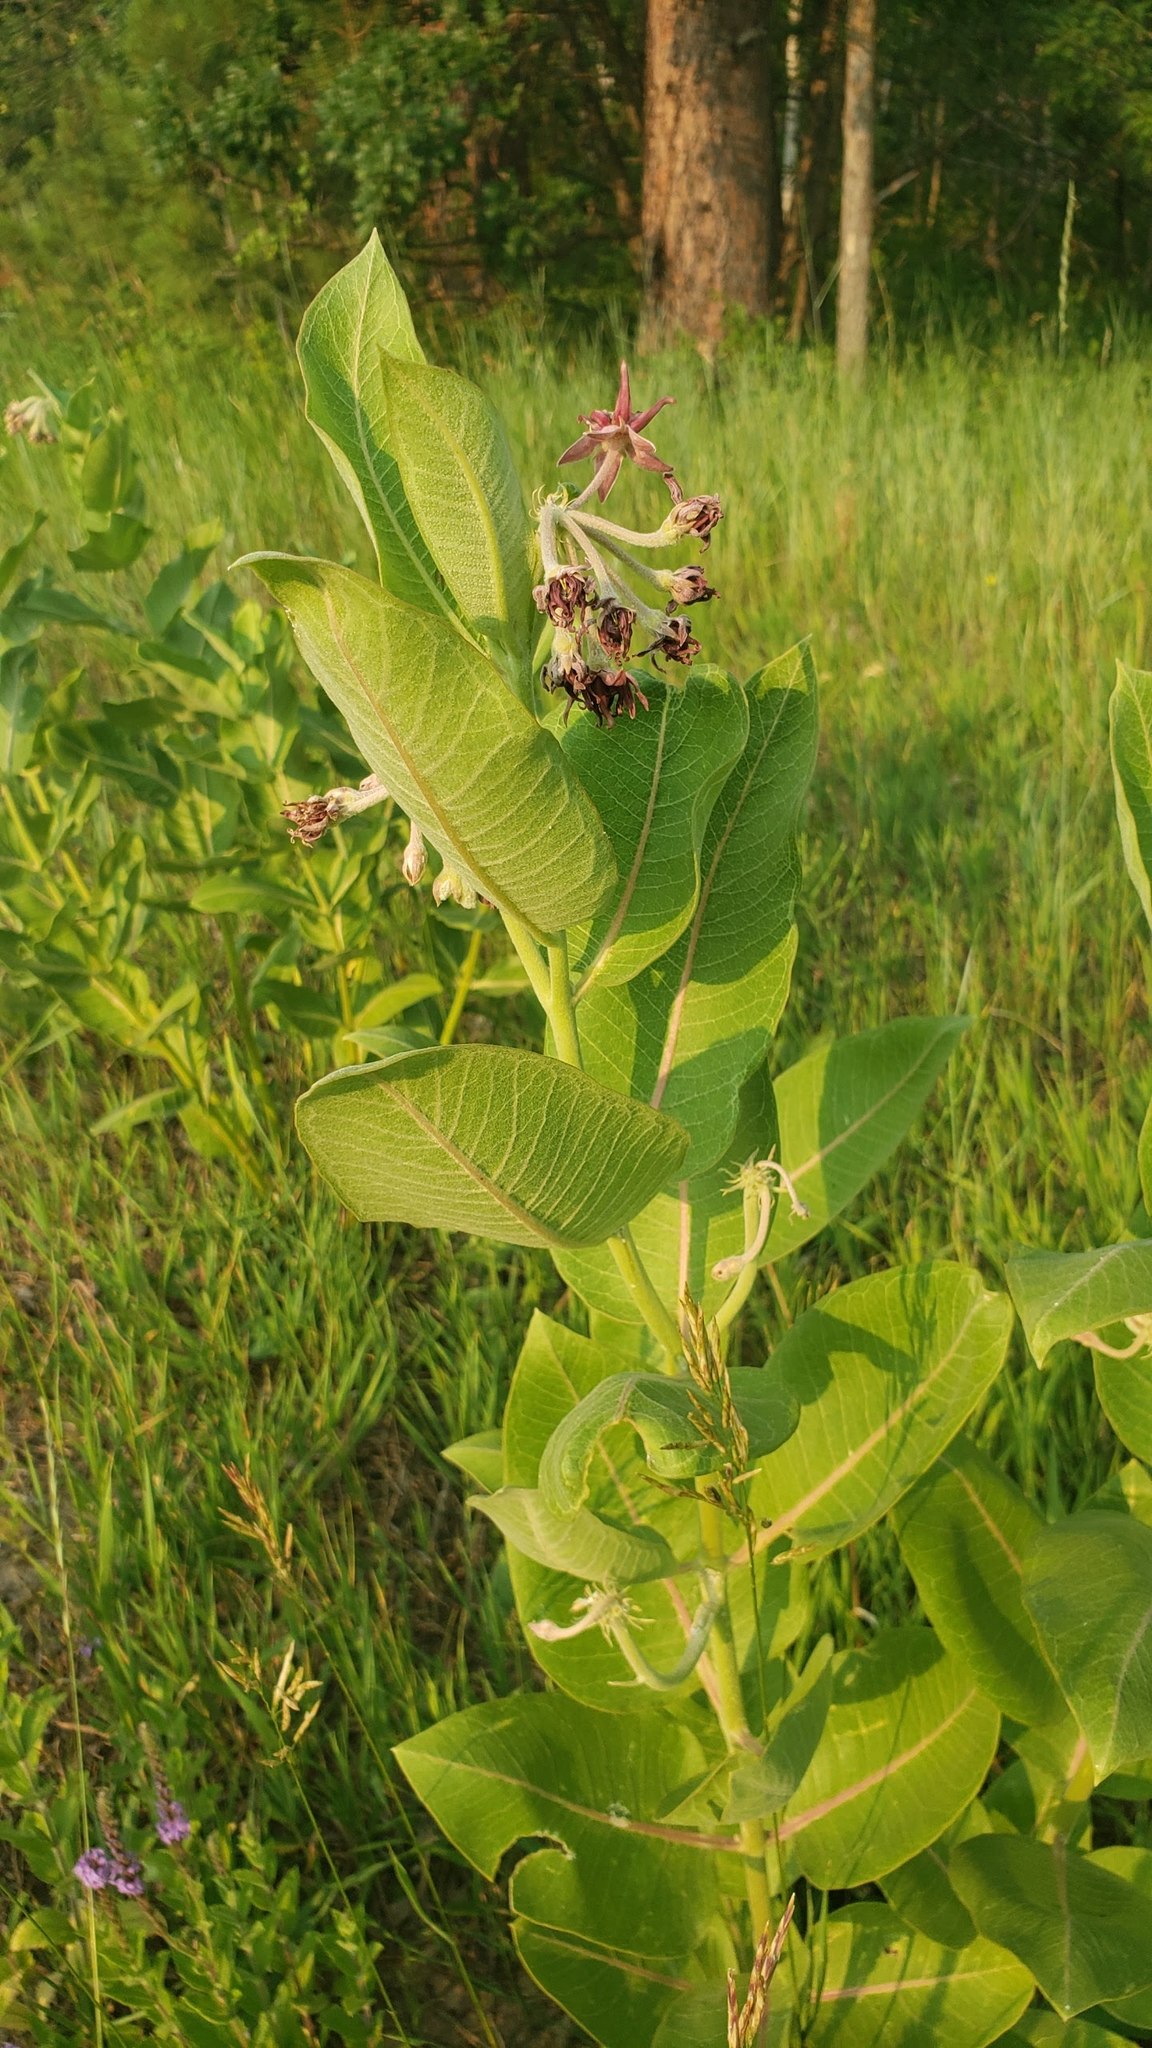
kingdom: Plantae
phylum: Tracheophyta
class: Magnoliopsida
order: Gentianales
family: Apocynaceae
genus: Asclepias
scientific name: Asclepias speciosa
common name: Showy milkweed
